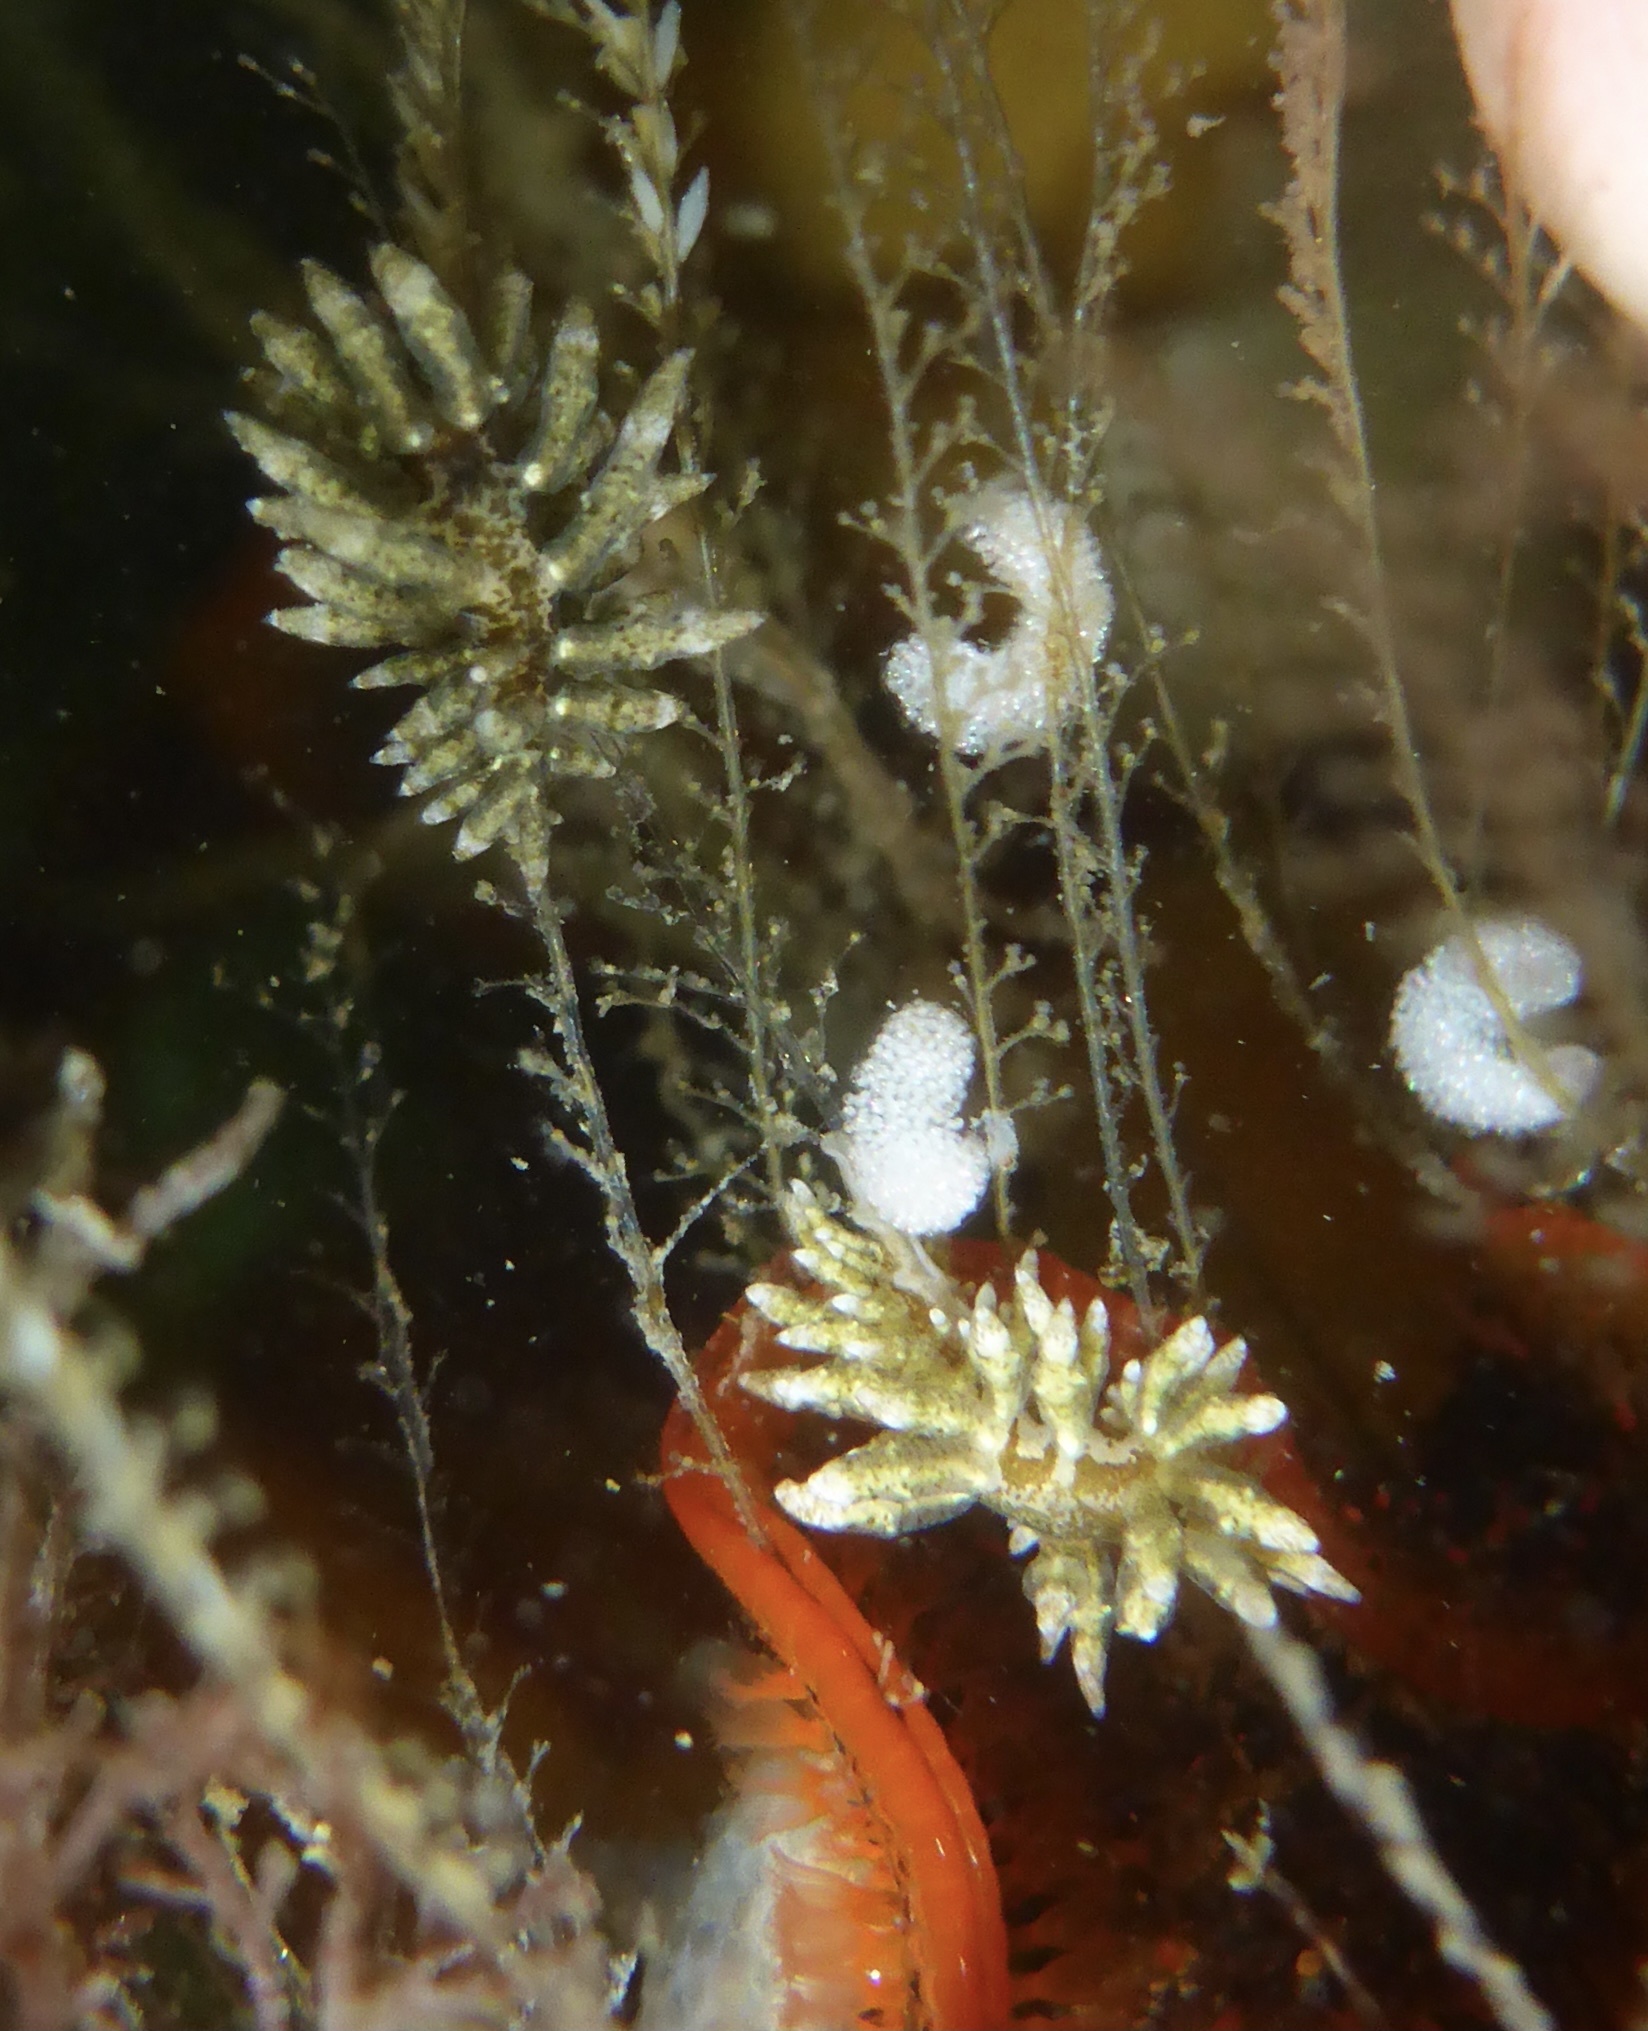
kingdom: Animalia
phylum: Mollusca
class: Gastropoda
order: Nudibranchia
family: Eubranchidae
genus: Eubranchus
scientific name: Eubranchus rustyus
